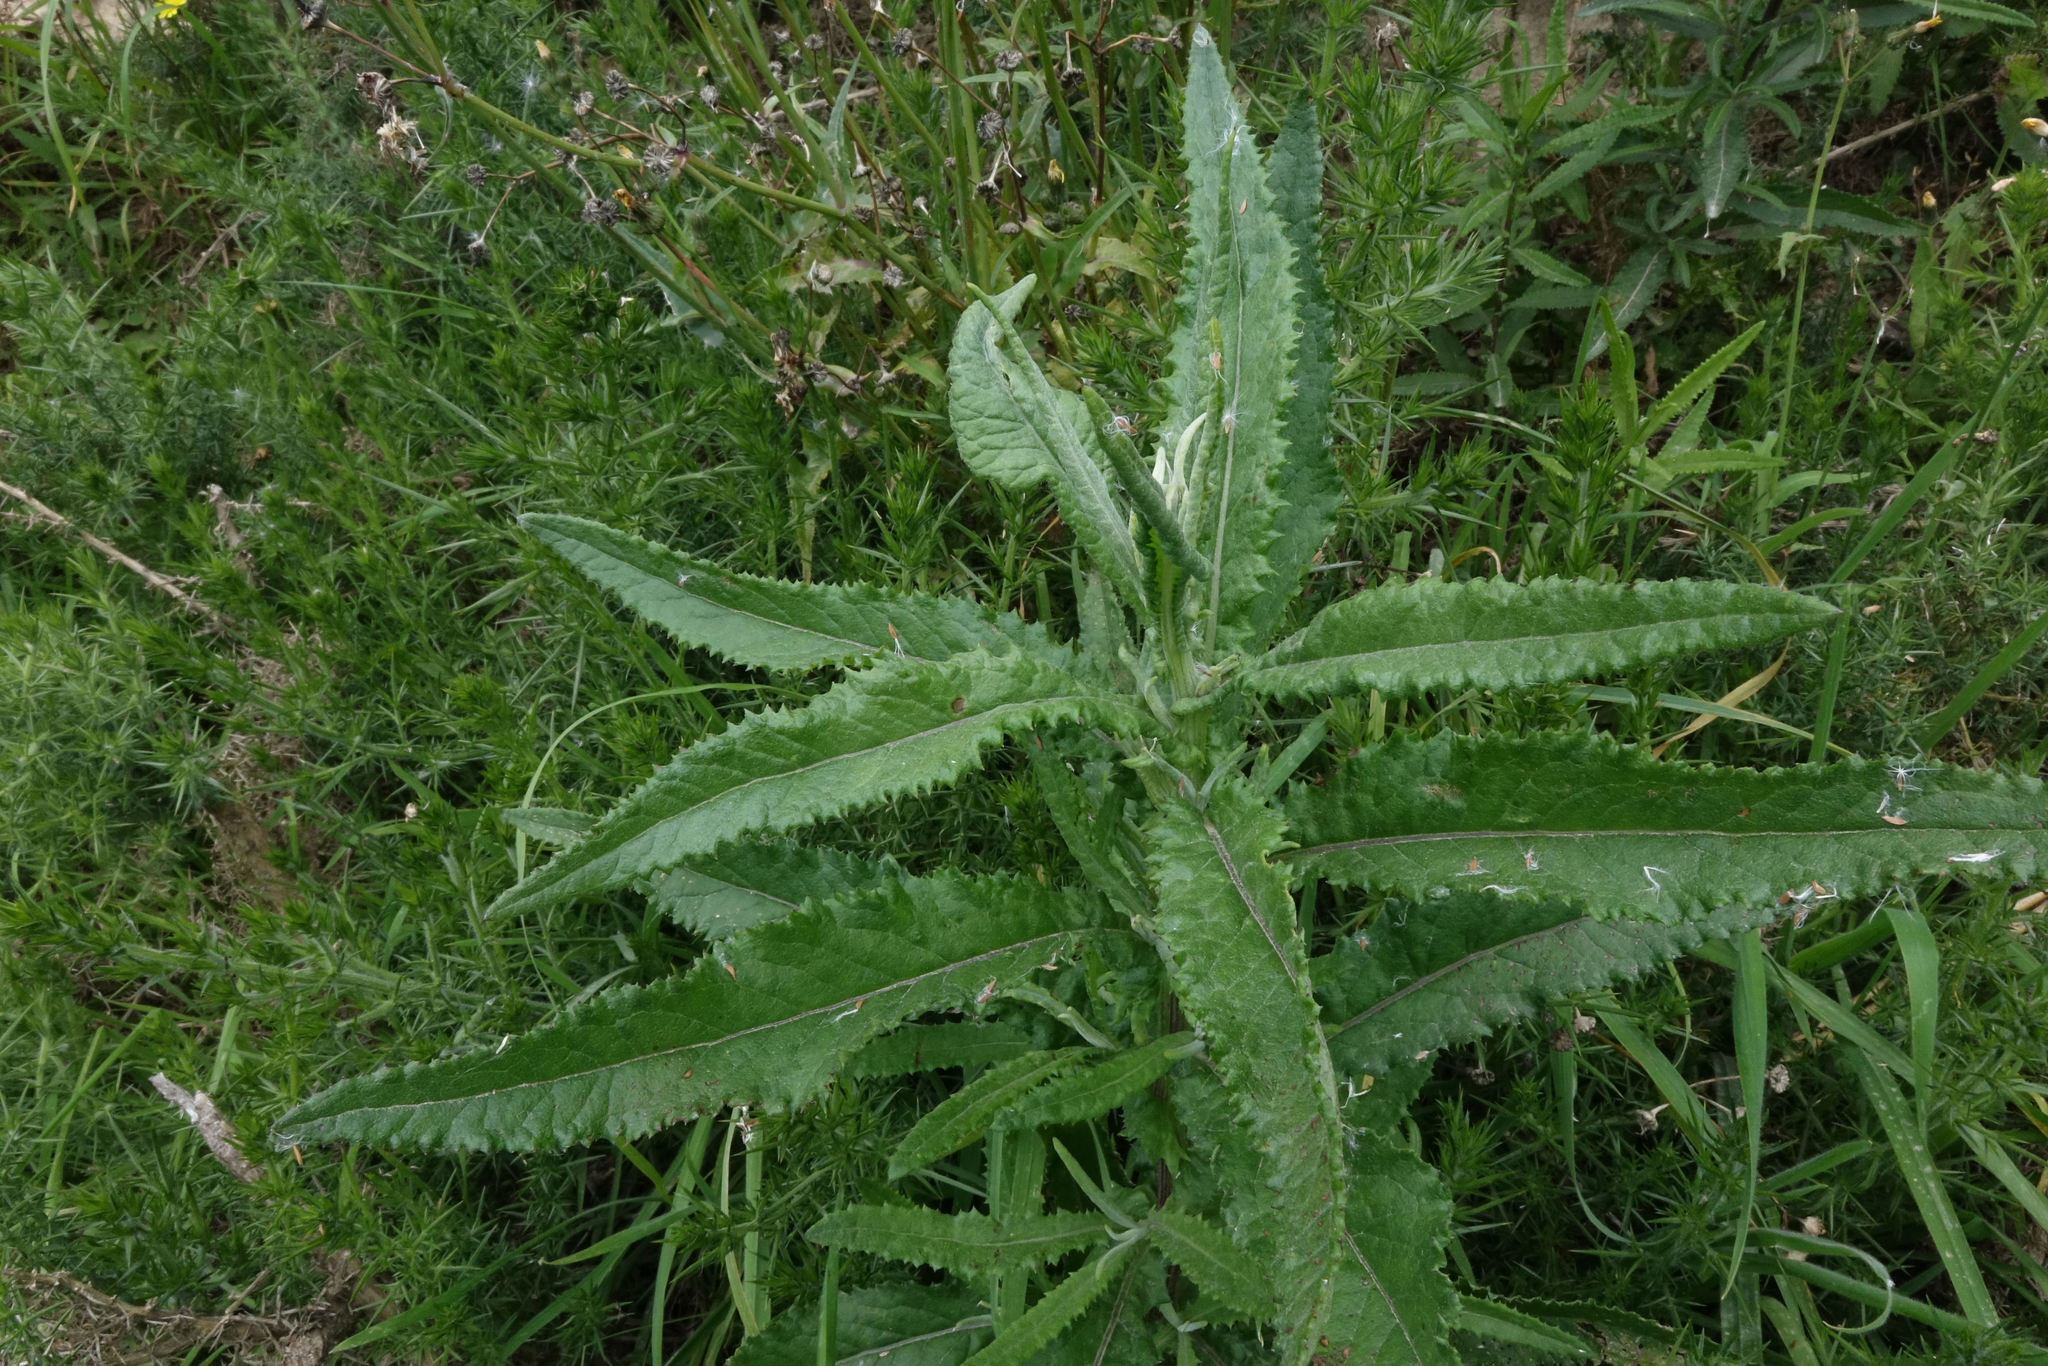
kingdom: Plantae
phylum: Tracheophyta
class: Magnoliopsida
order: Asterales
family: Asteraceae
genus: Senecio
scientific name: Senecio minimus
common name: Toothed fireweed
